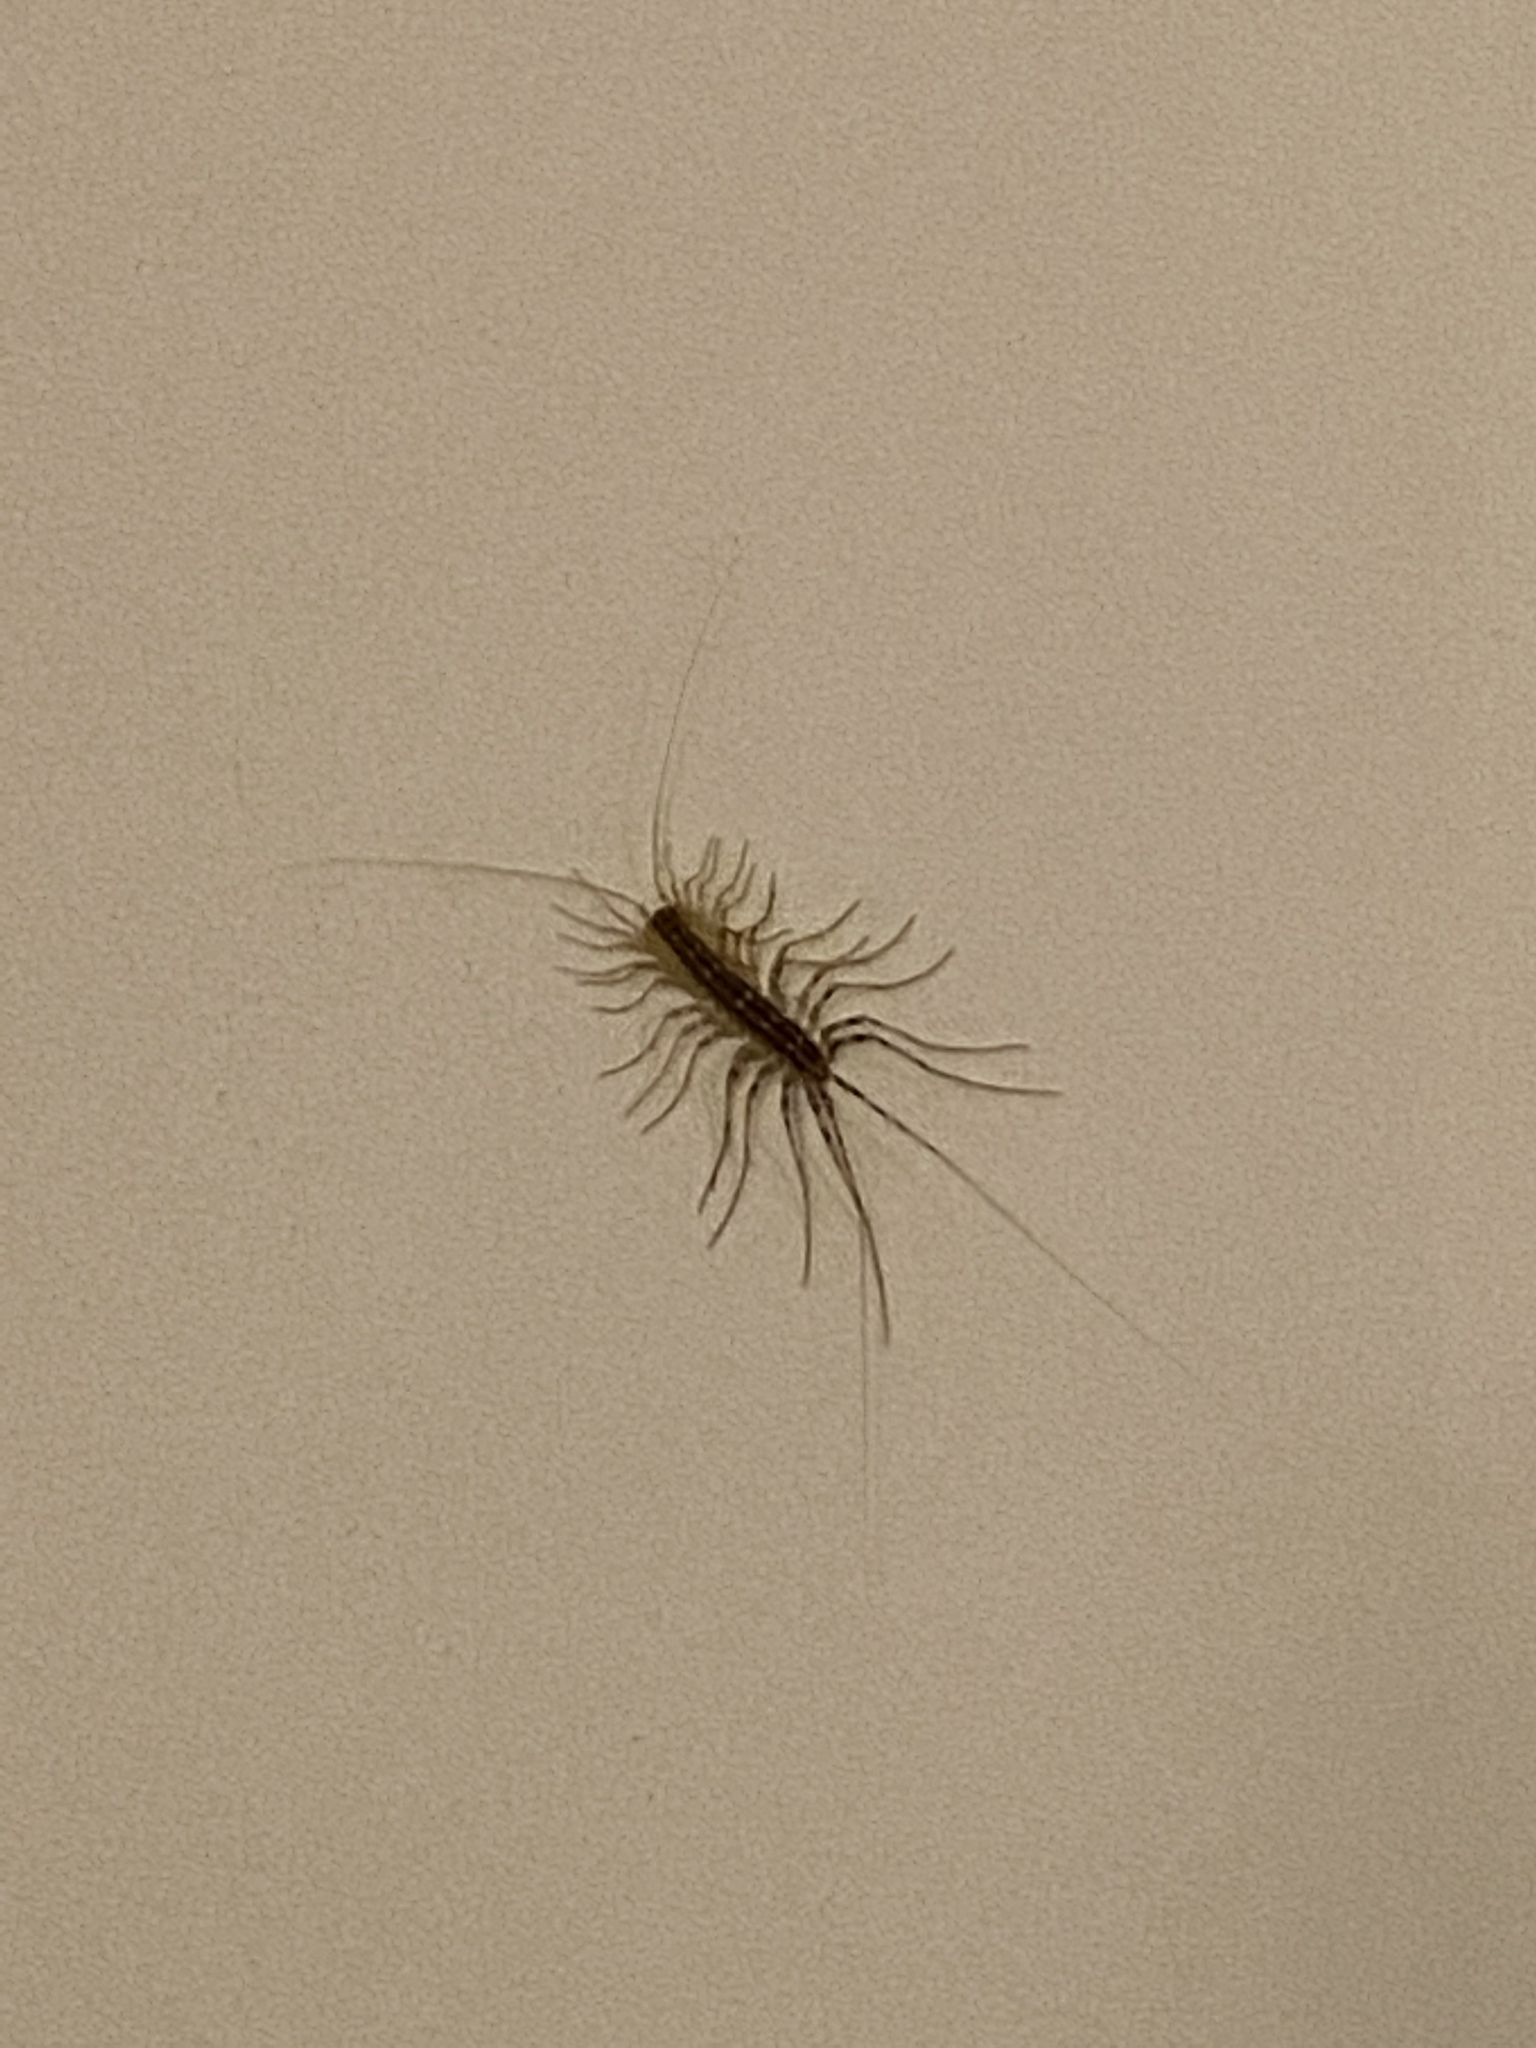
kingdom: Animalia
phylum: Arthropoda
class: Chilopoda
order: Scutigeromorpha
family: Scutigeridae
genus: Scutigera
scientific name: Scutigera coleoptrata
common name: House centipede
